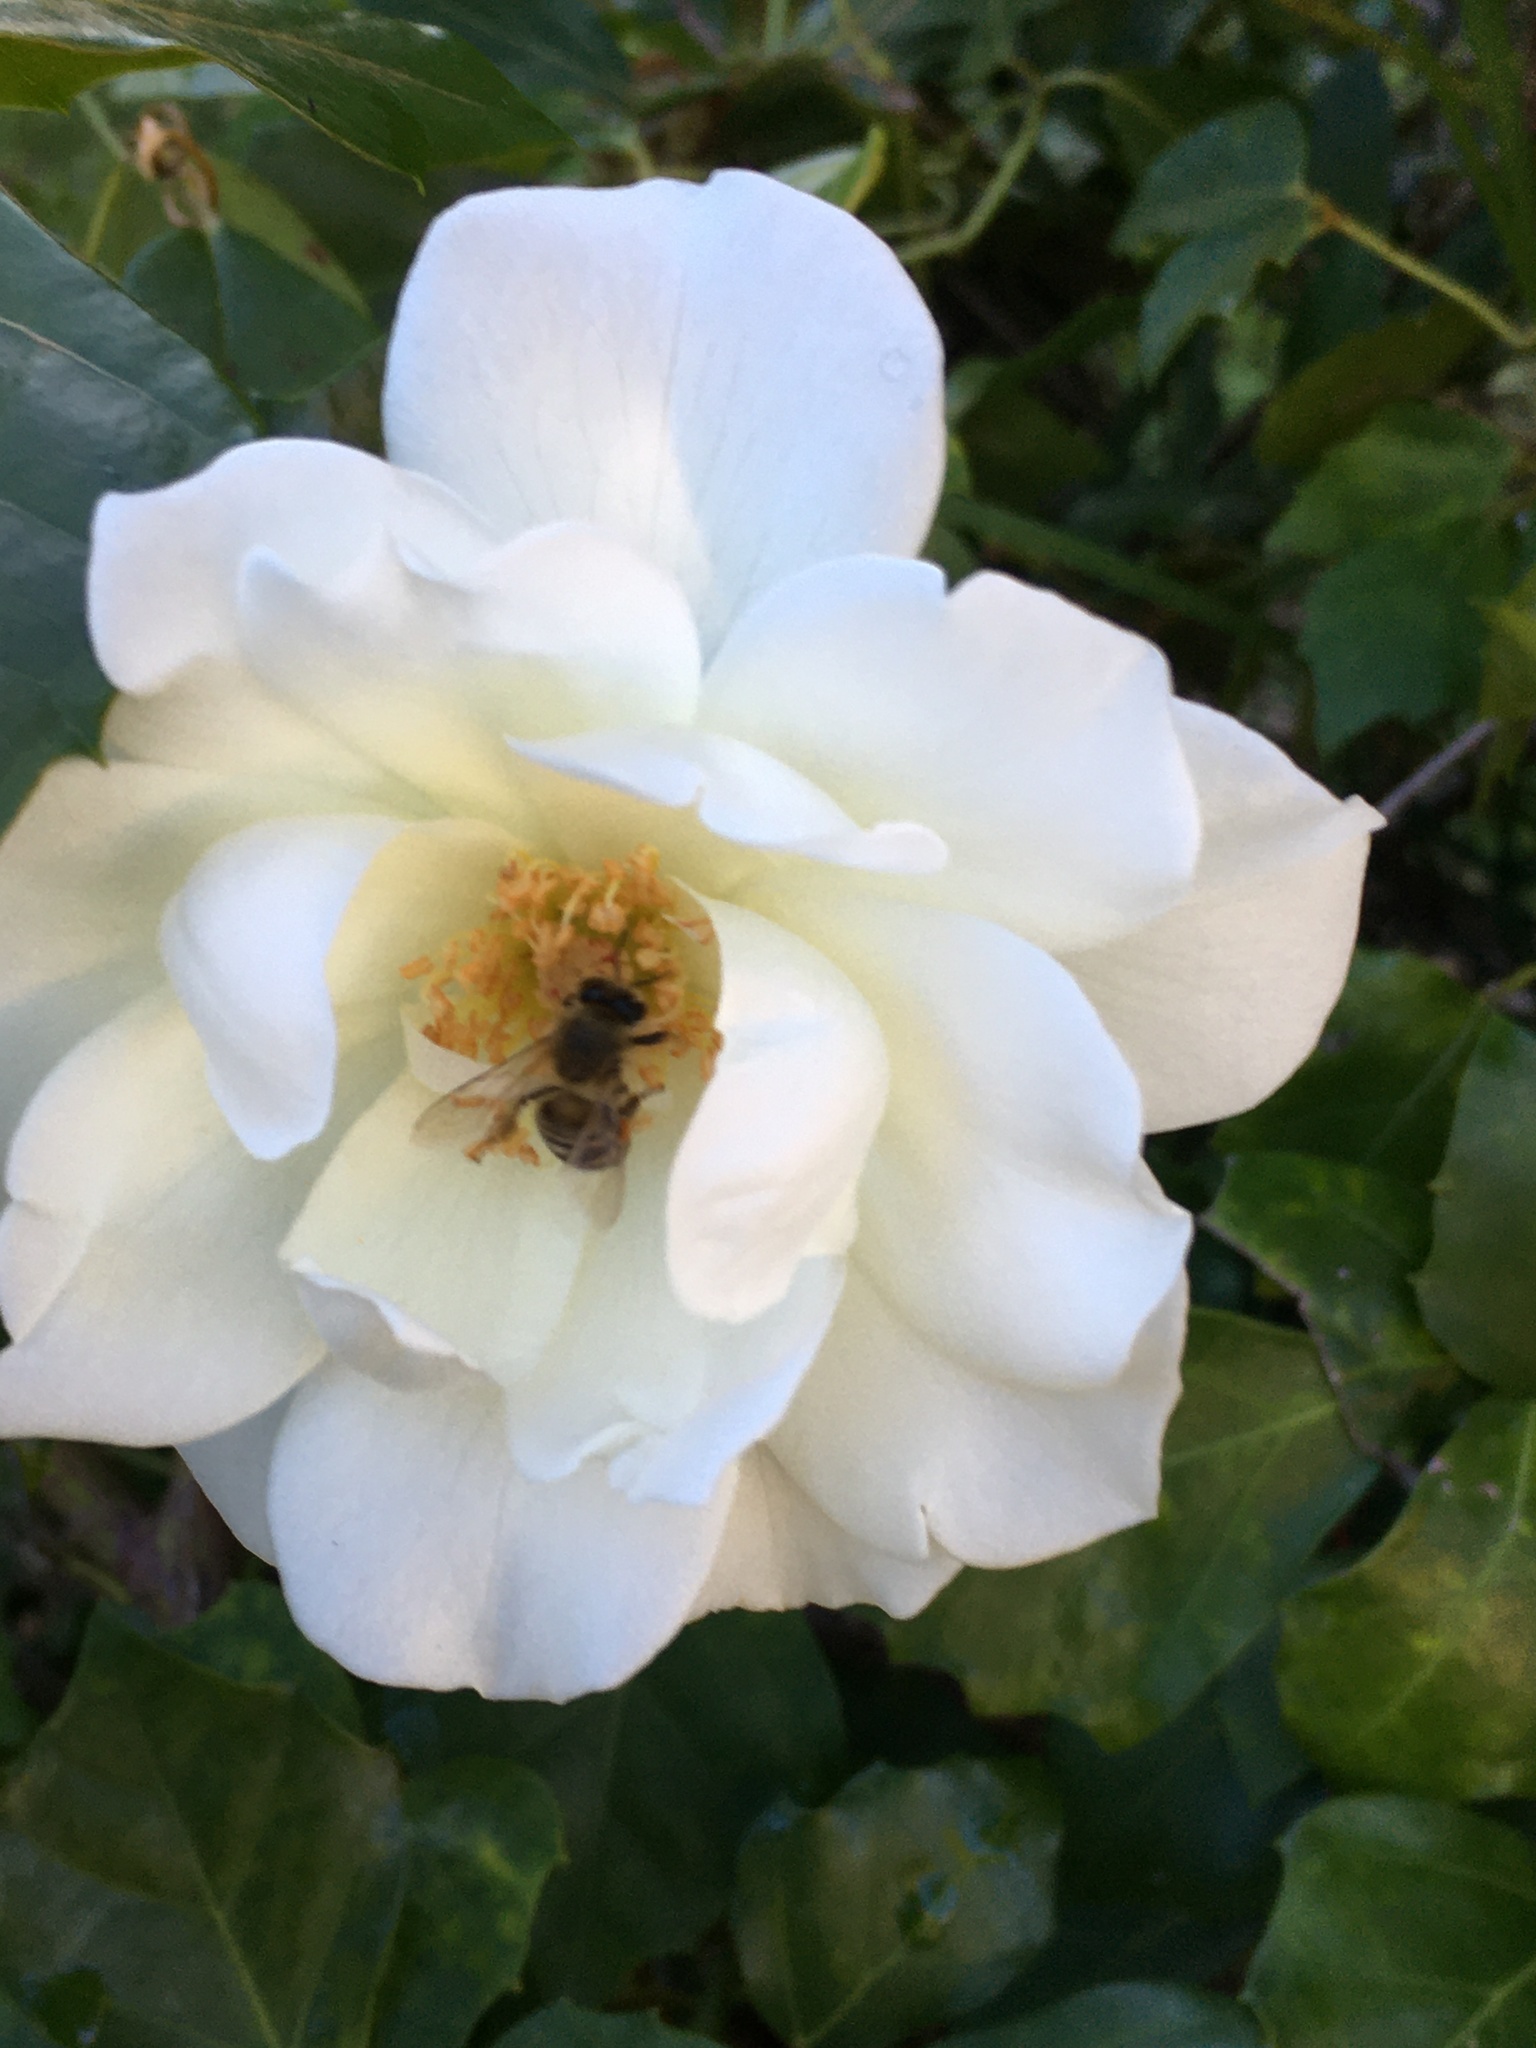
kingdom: Animalia
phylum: Arthropoda
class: Insecta
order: Hymenoptera
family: Apidae
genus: Apis
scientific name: Apis mellifera
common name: Honey bee
